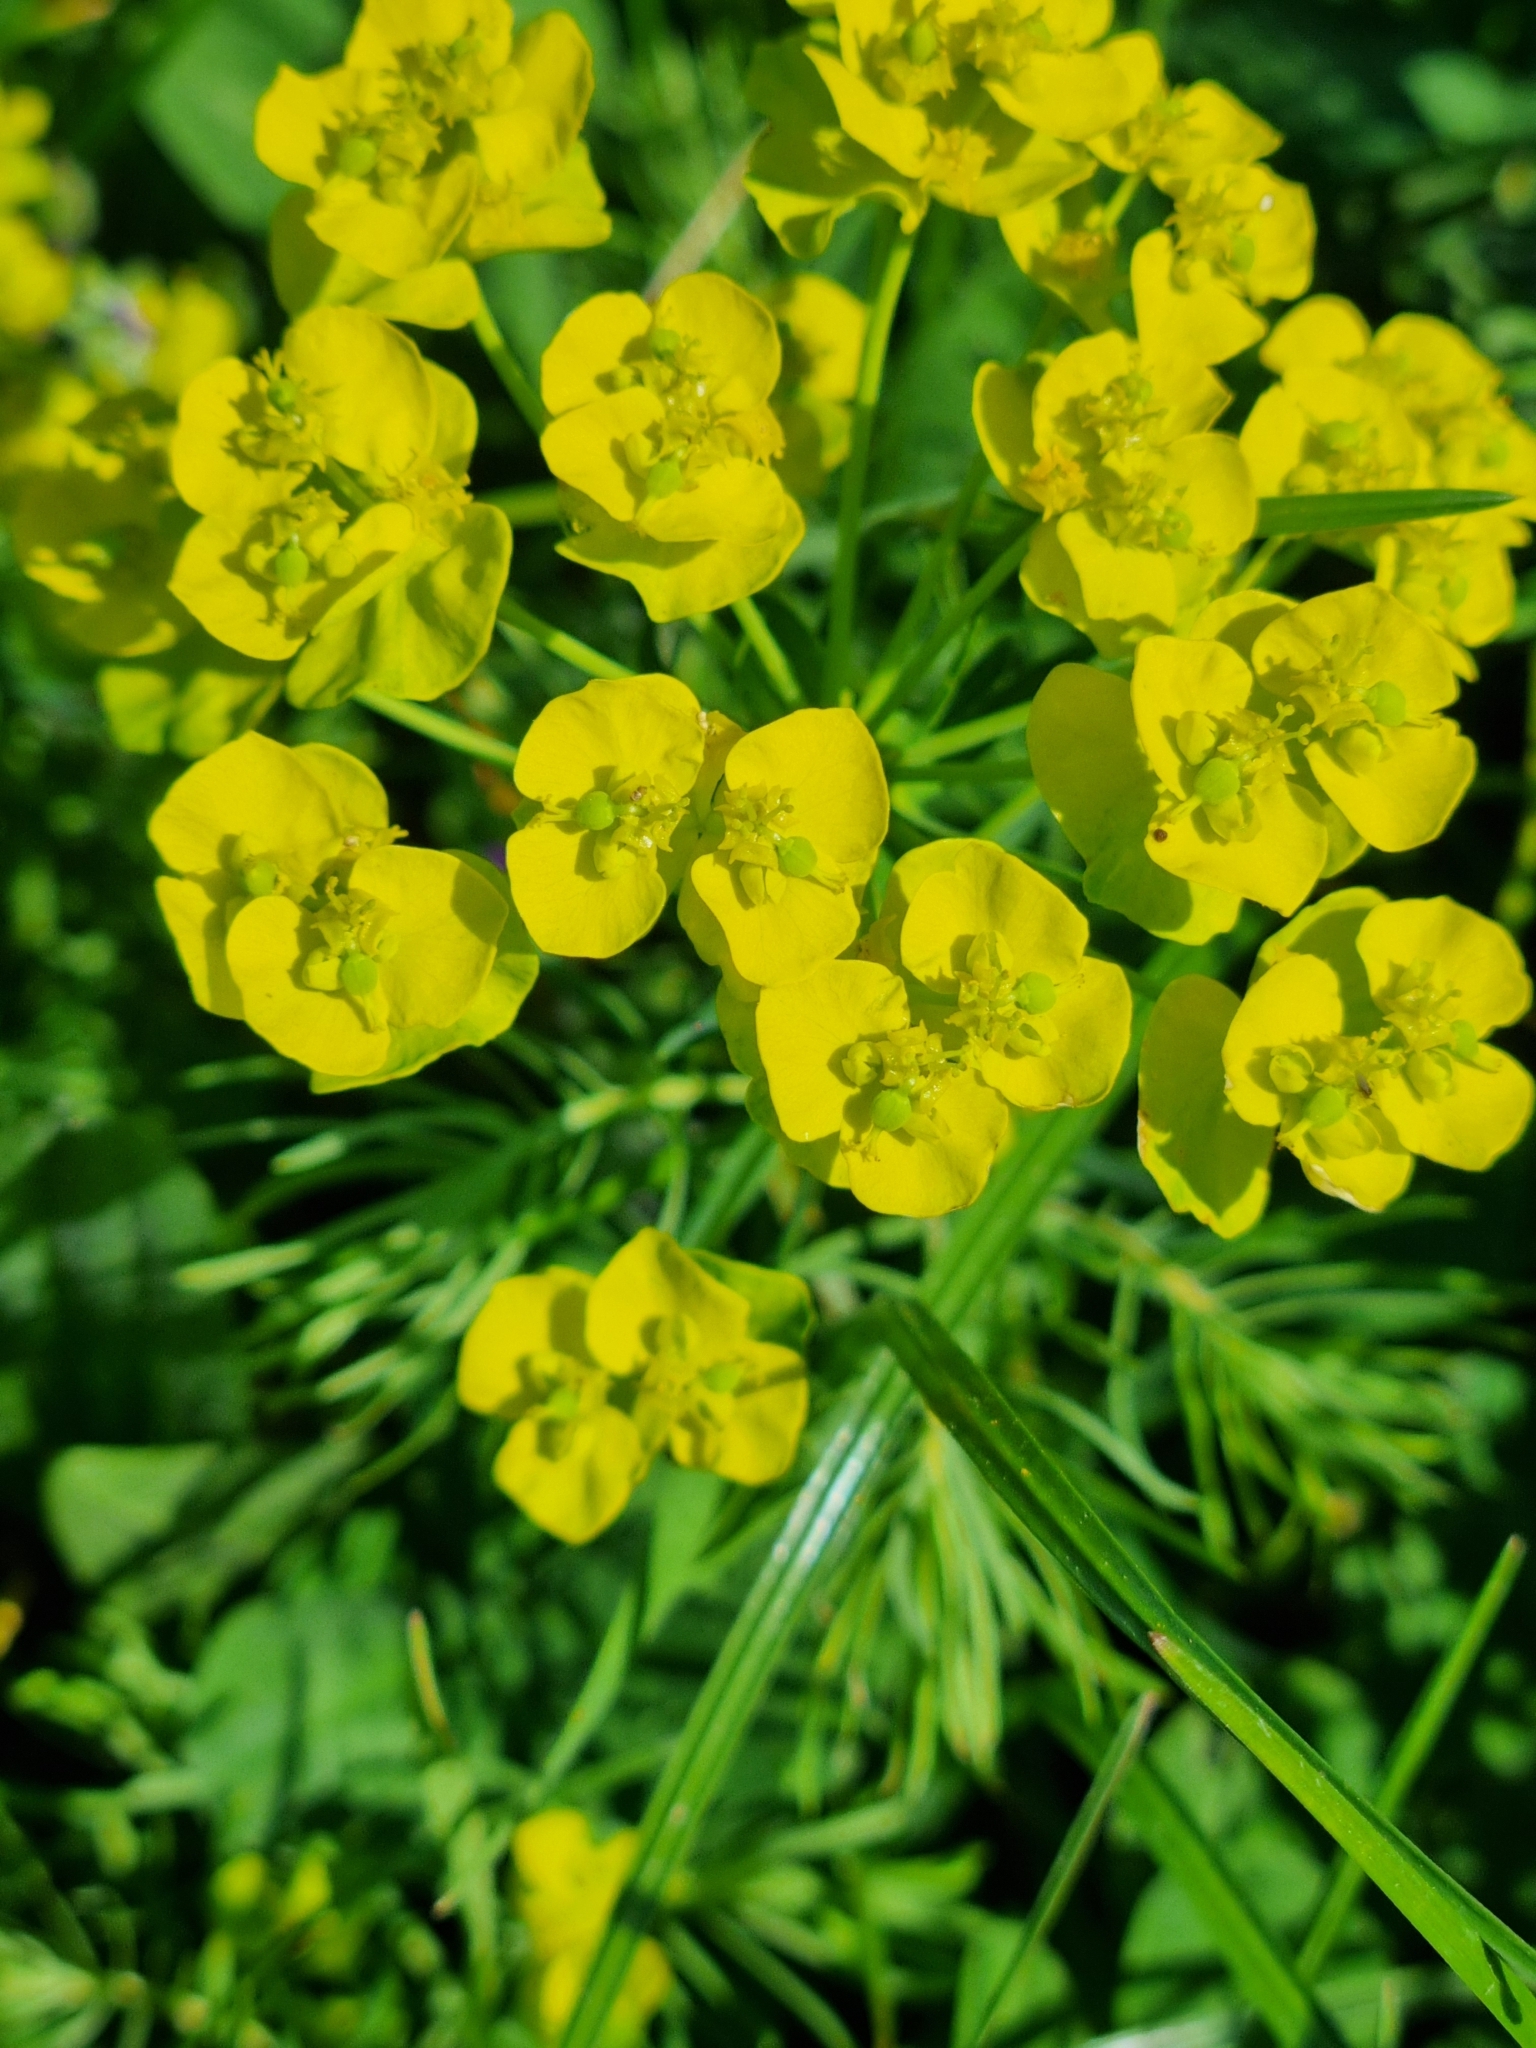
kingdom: Plantae
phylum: Tracheophyta
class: Magnoliopsida
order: Malpighiales
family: Euphorbiaceae
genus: Euphorbia
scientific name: Euphorbia cyparissias
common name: Cypress spurge
